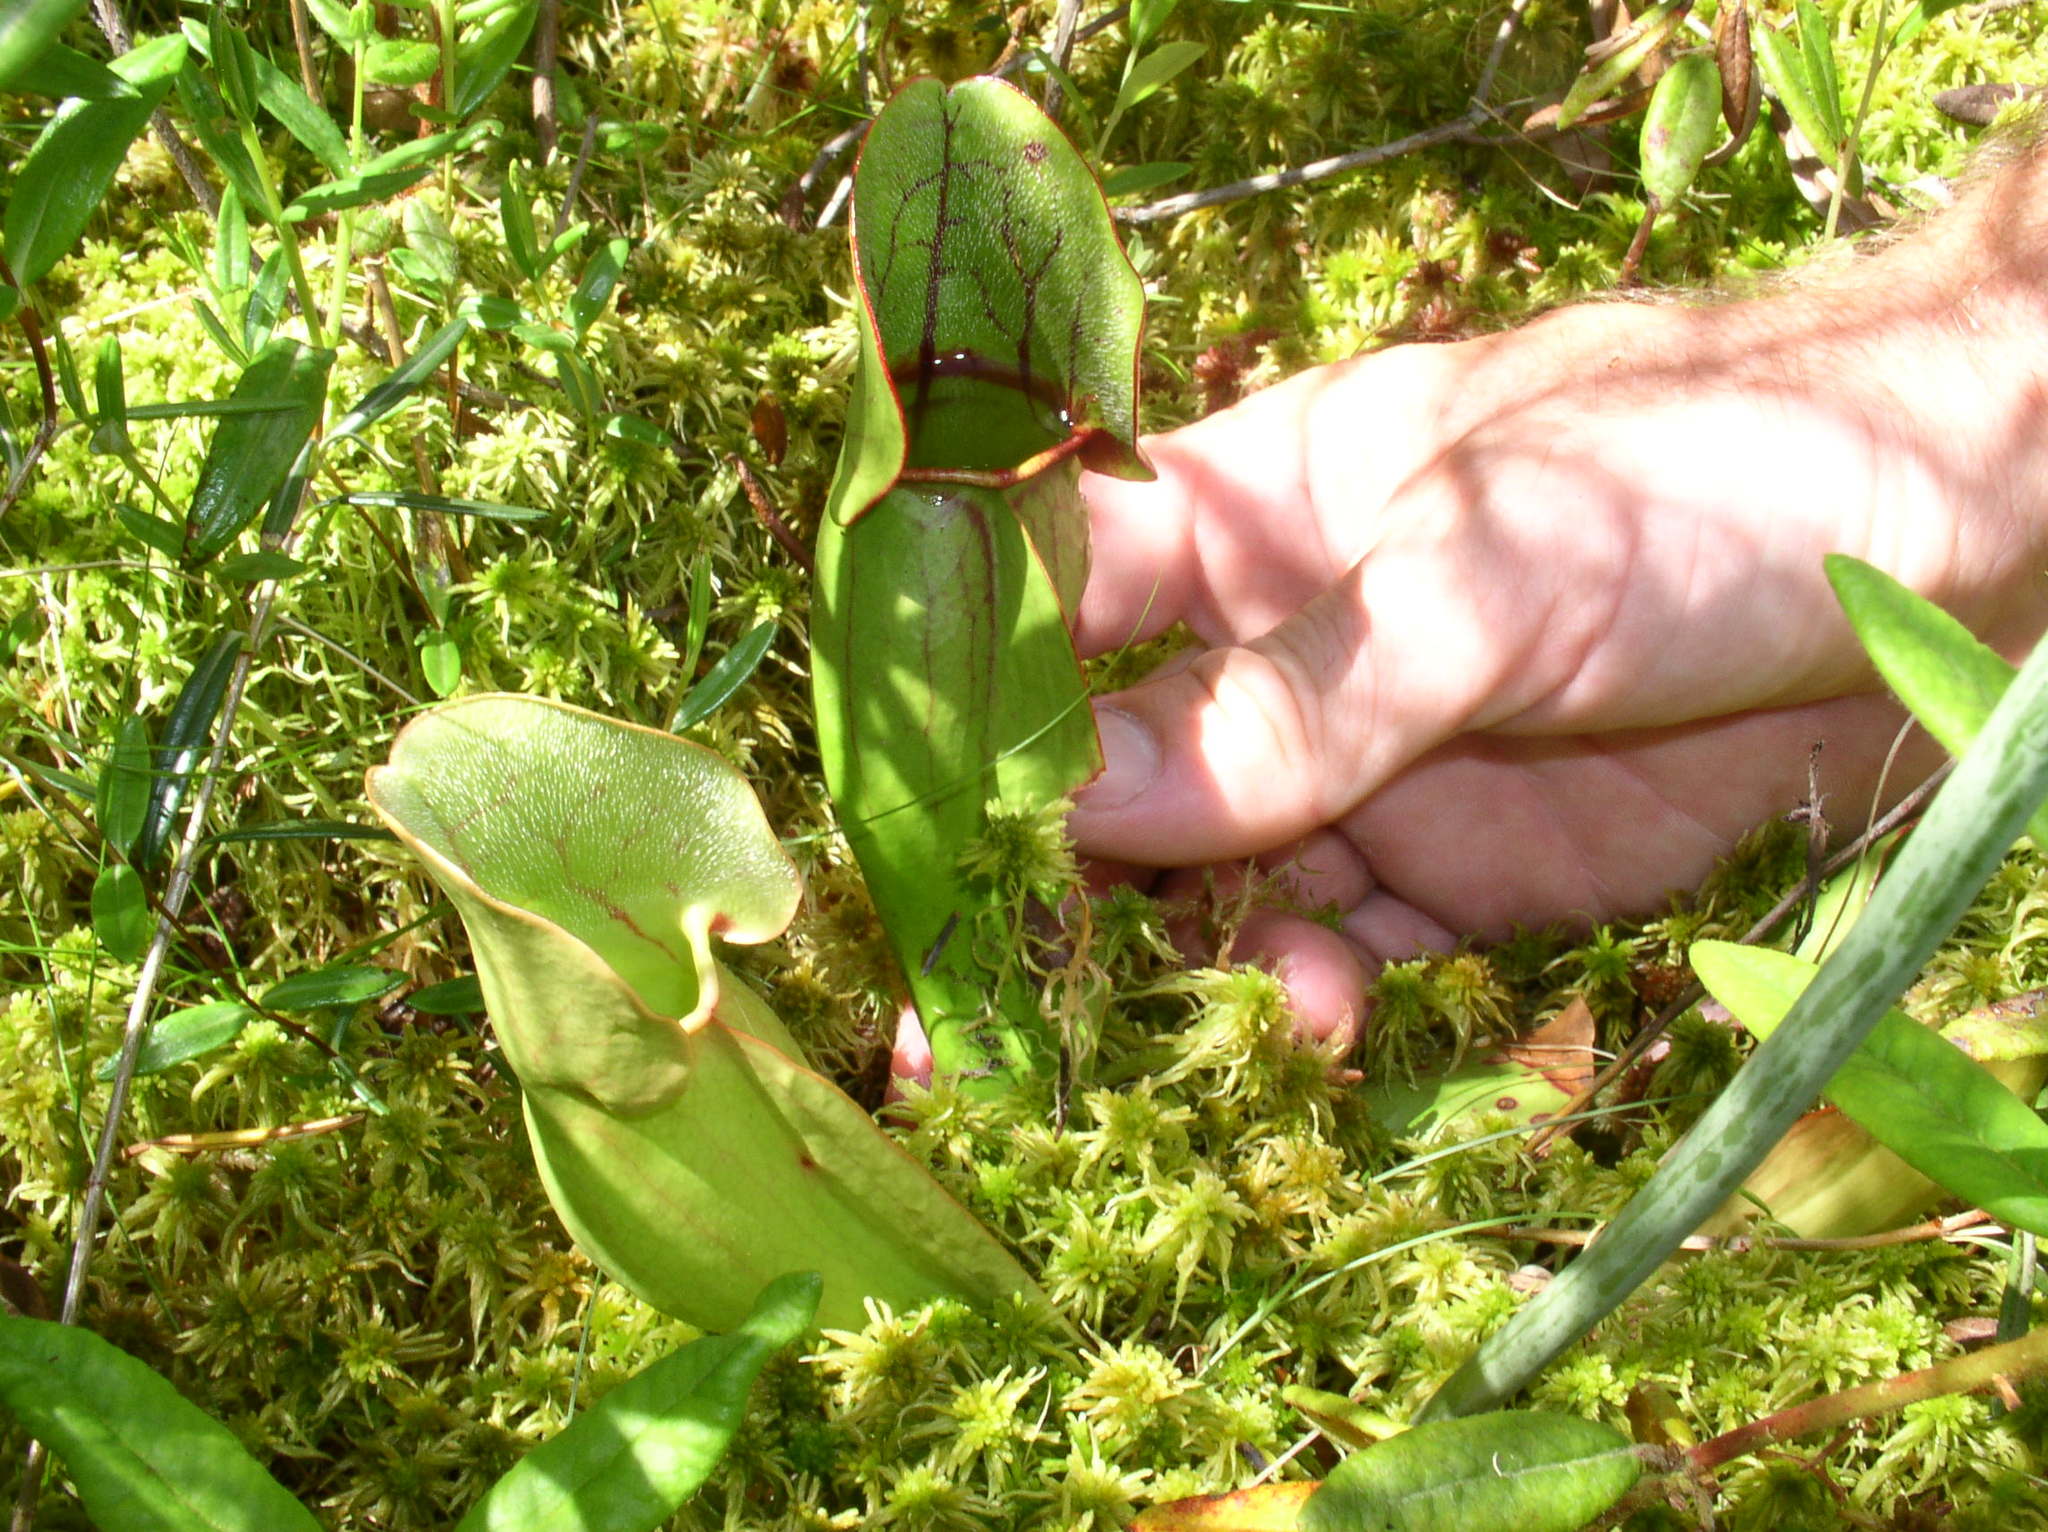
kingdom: Plantae
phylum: Tracheophyta
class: Magnoliopsida
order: Ericales
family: Sarraceniaceae
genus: Sarracenia
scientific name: Sarracenia purpurea
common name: Pitcherplant
